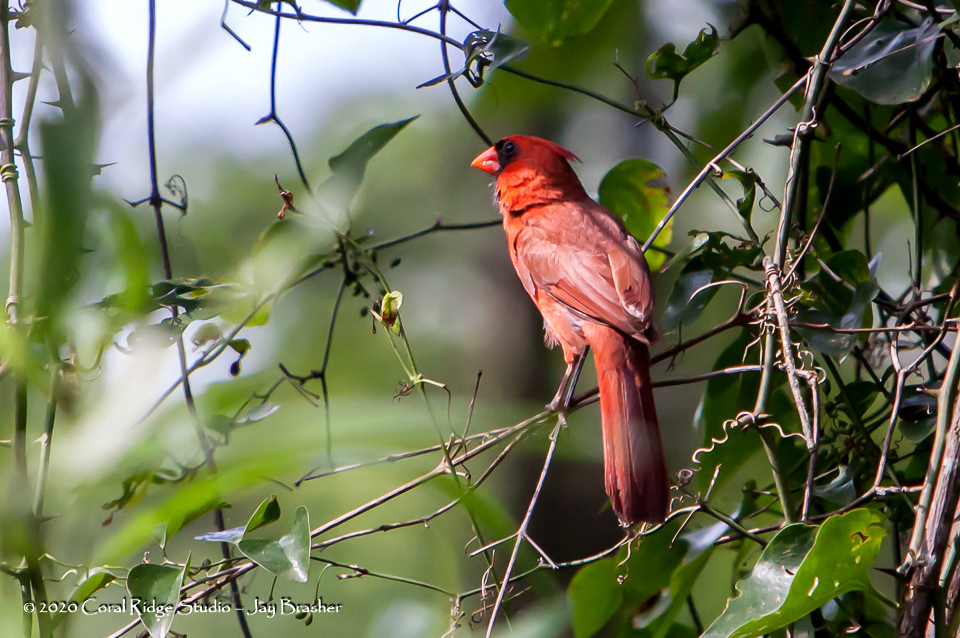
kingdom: Animalia
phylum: Chordata
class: Aves
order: Passeriformes
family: Cardinalidae
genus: Cardinalis
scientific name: Cardinalis cardinalis
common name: Northern cardinal
